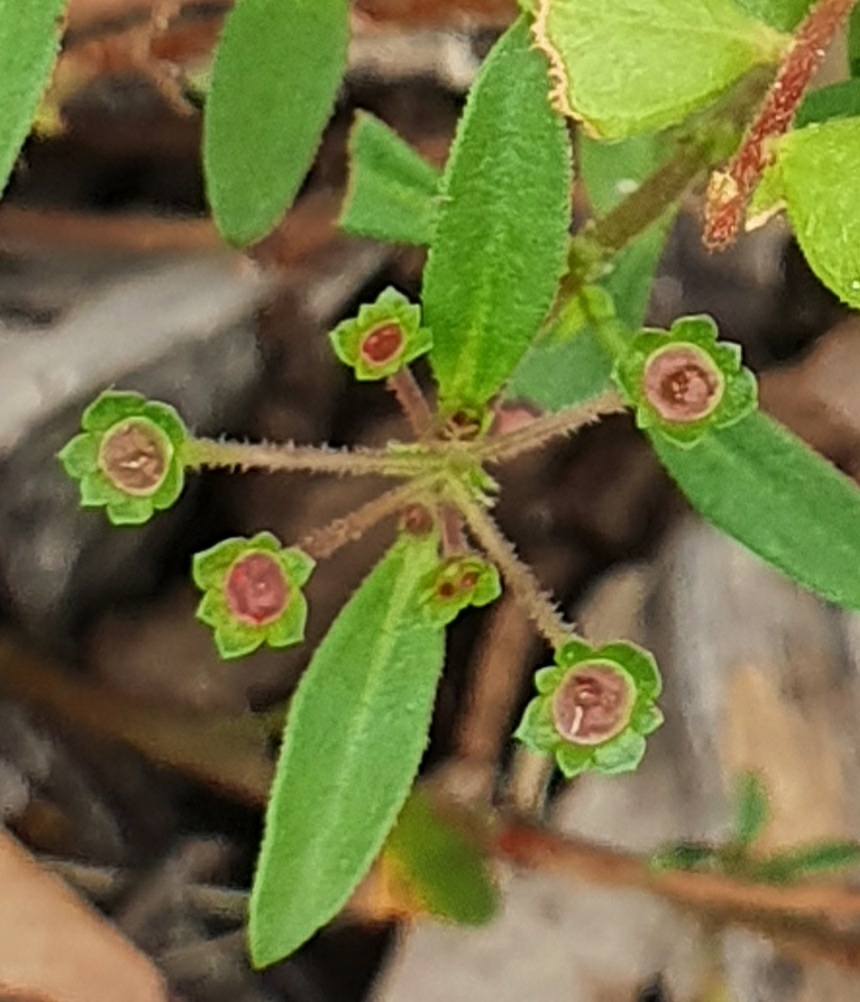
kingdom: Plantae
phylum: Tracheophyta
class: Magnoliopsida
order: Gentianales
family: Rubiaceae
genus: Pomax
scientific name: Pomax umbellata
